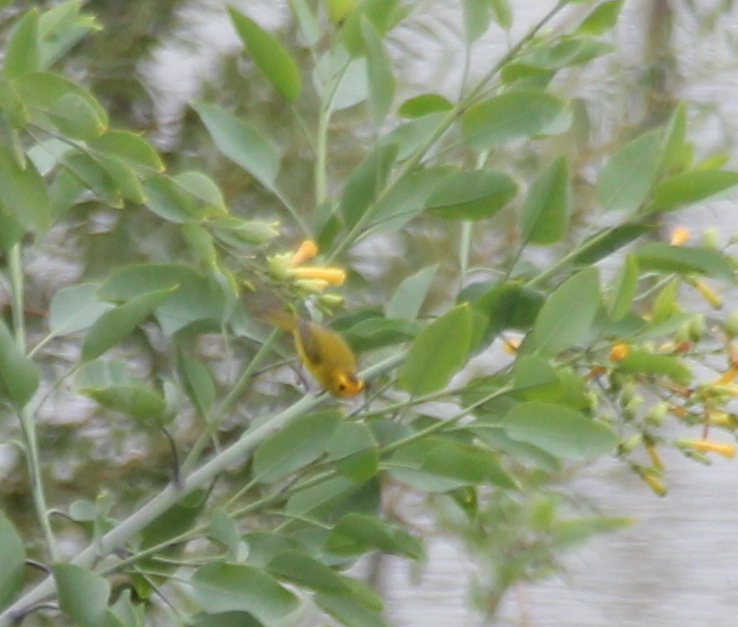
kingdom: Animalia
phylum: Chordata
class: Aves
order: Passeriformes
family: Parulidae
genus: Cardellina
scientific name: Cardellina pusilla
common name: Wilson's warbler
